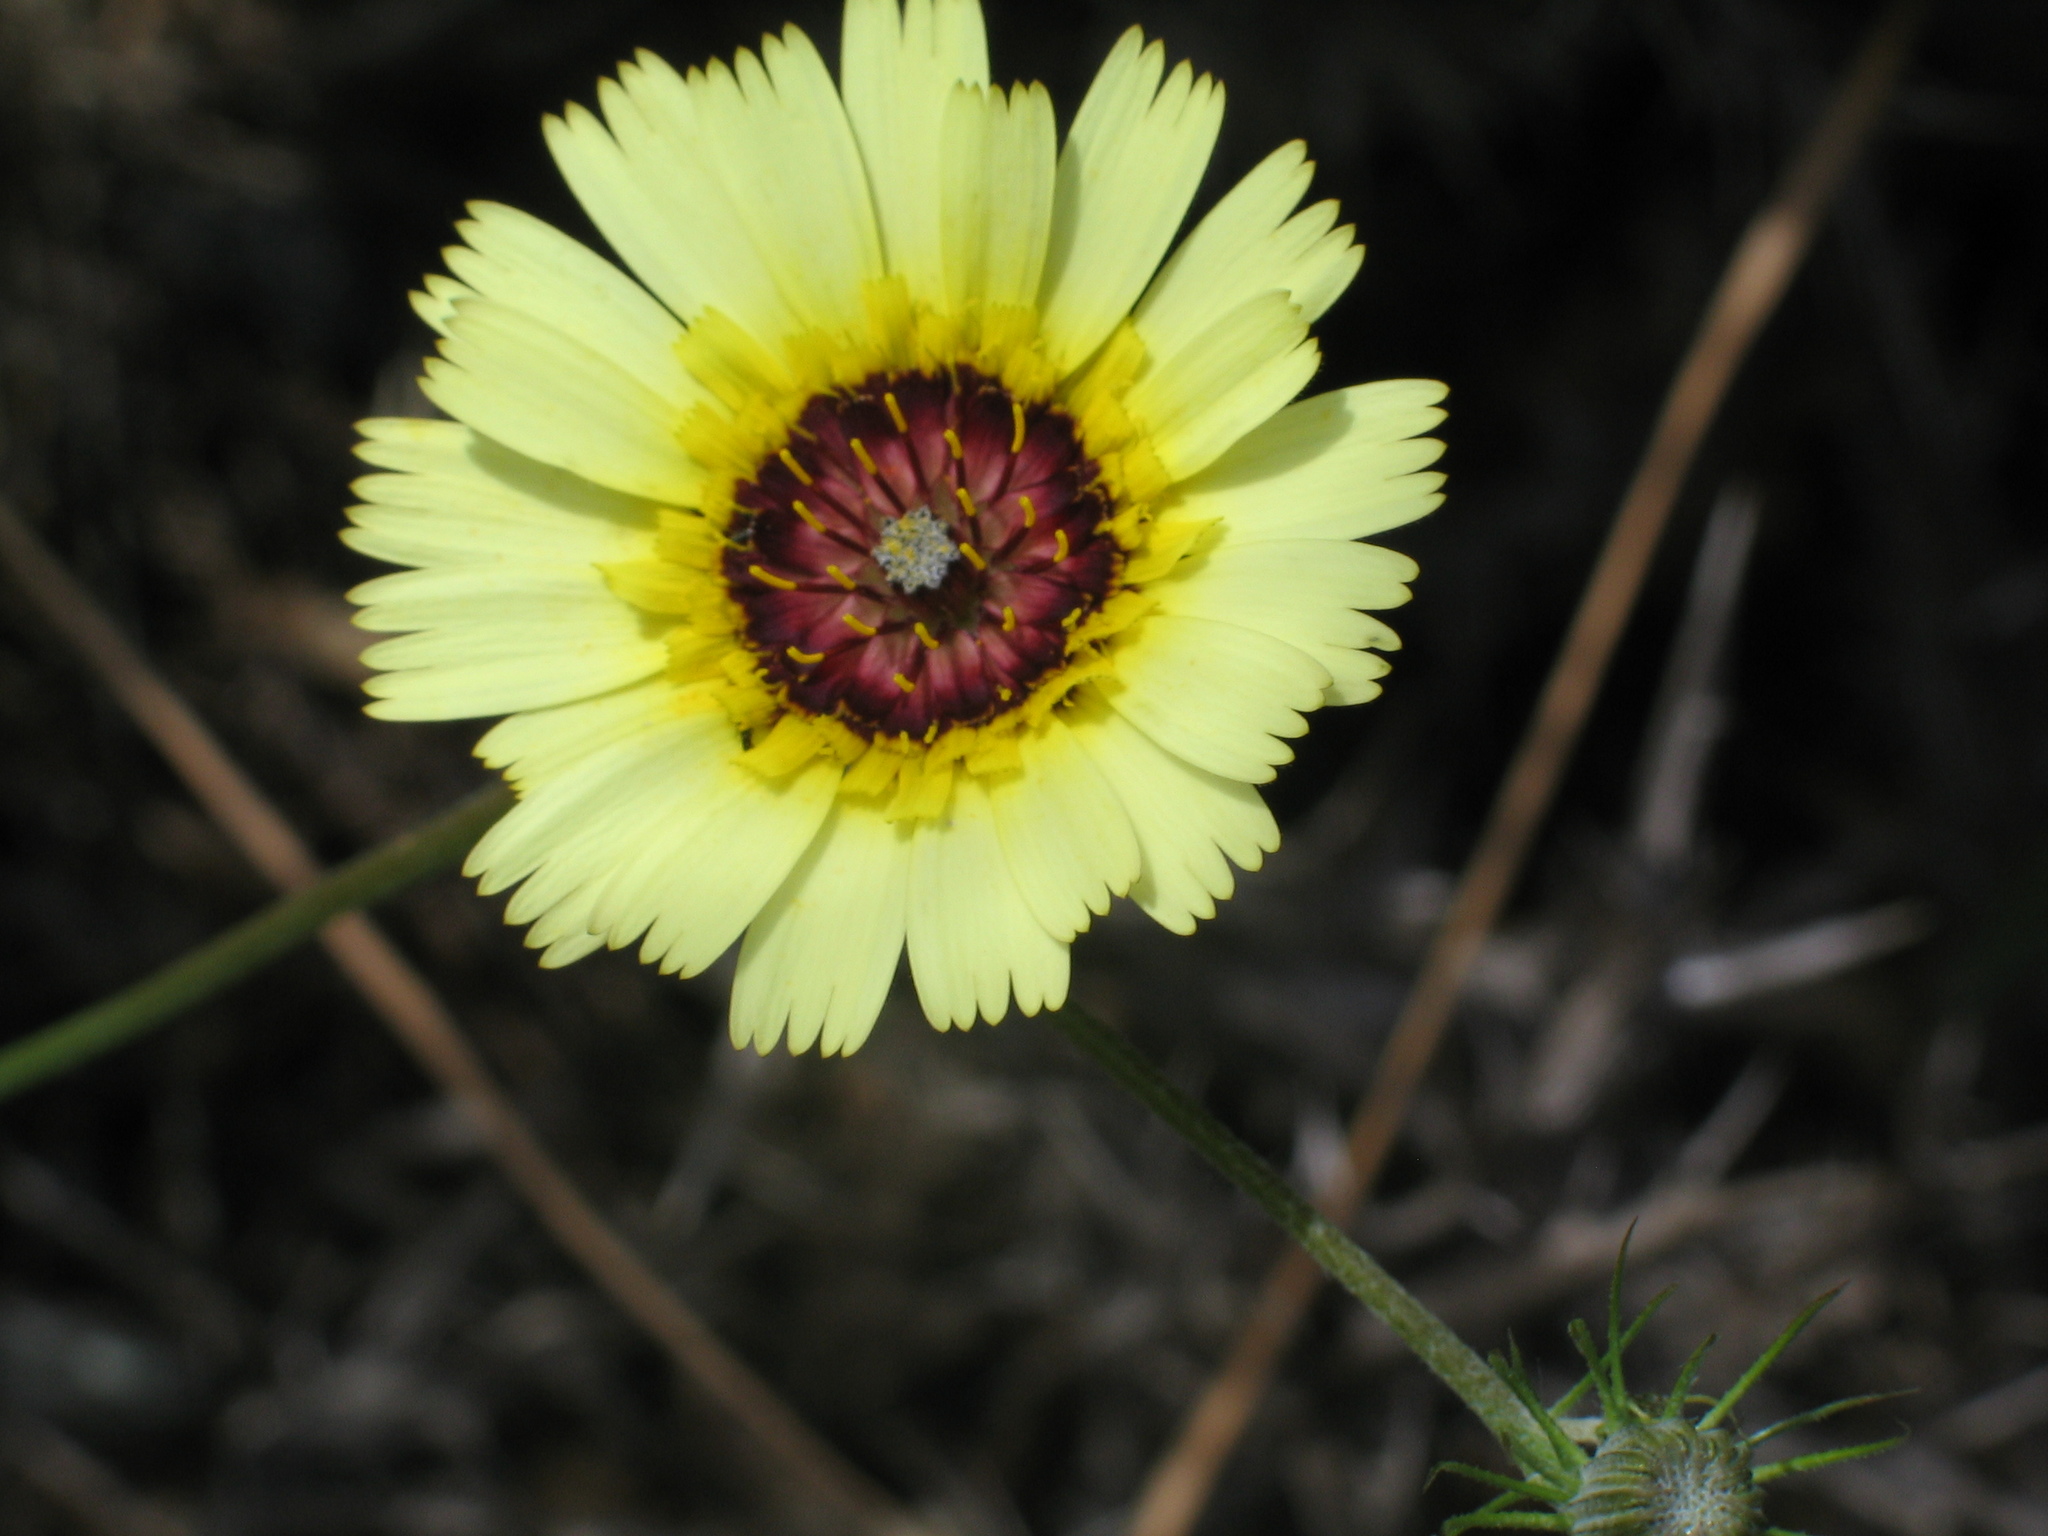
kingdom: Plantae
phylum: Tracheophyta
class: Magnoliopsida
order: Asterales
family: Asteraceae
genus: Tolpis
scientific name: Tolpis barbata
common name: Yellow hawkweed
